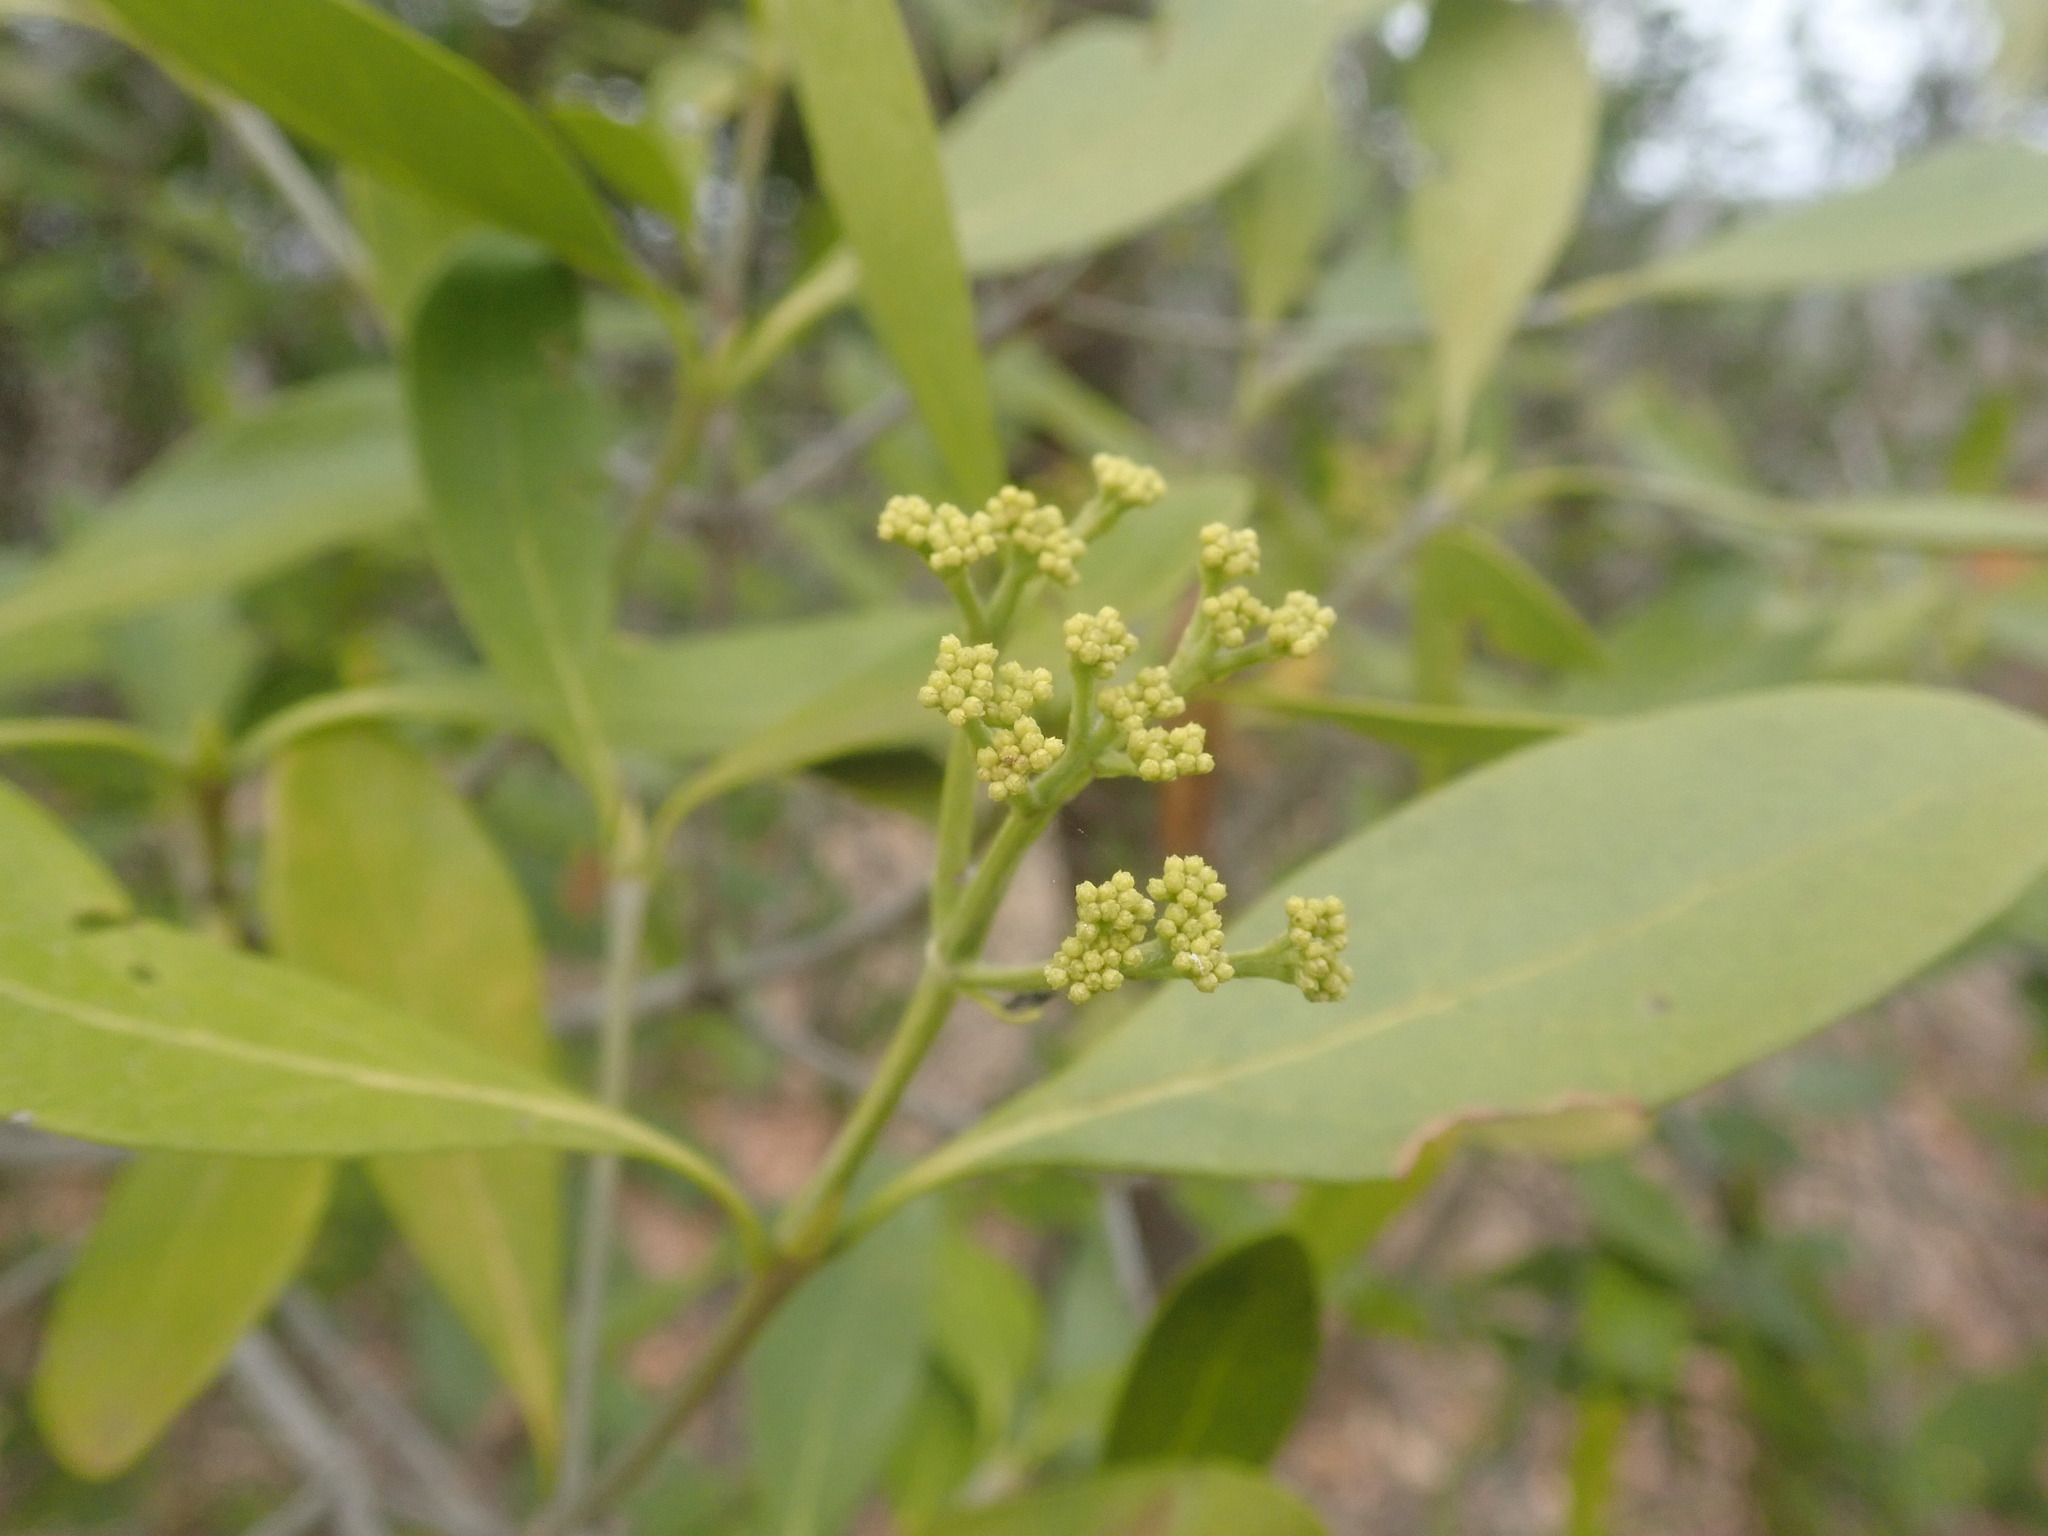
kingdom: Plantae
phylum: Tracheophyta
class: Magnoliopsida
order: Gentianales
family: Rubiaceae
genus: Coptosperma
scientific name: Coptosperma supra-axillare
